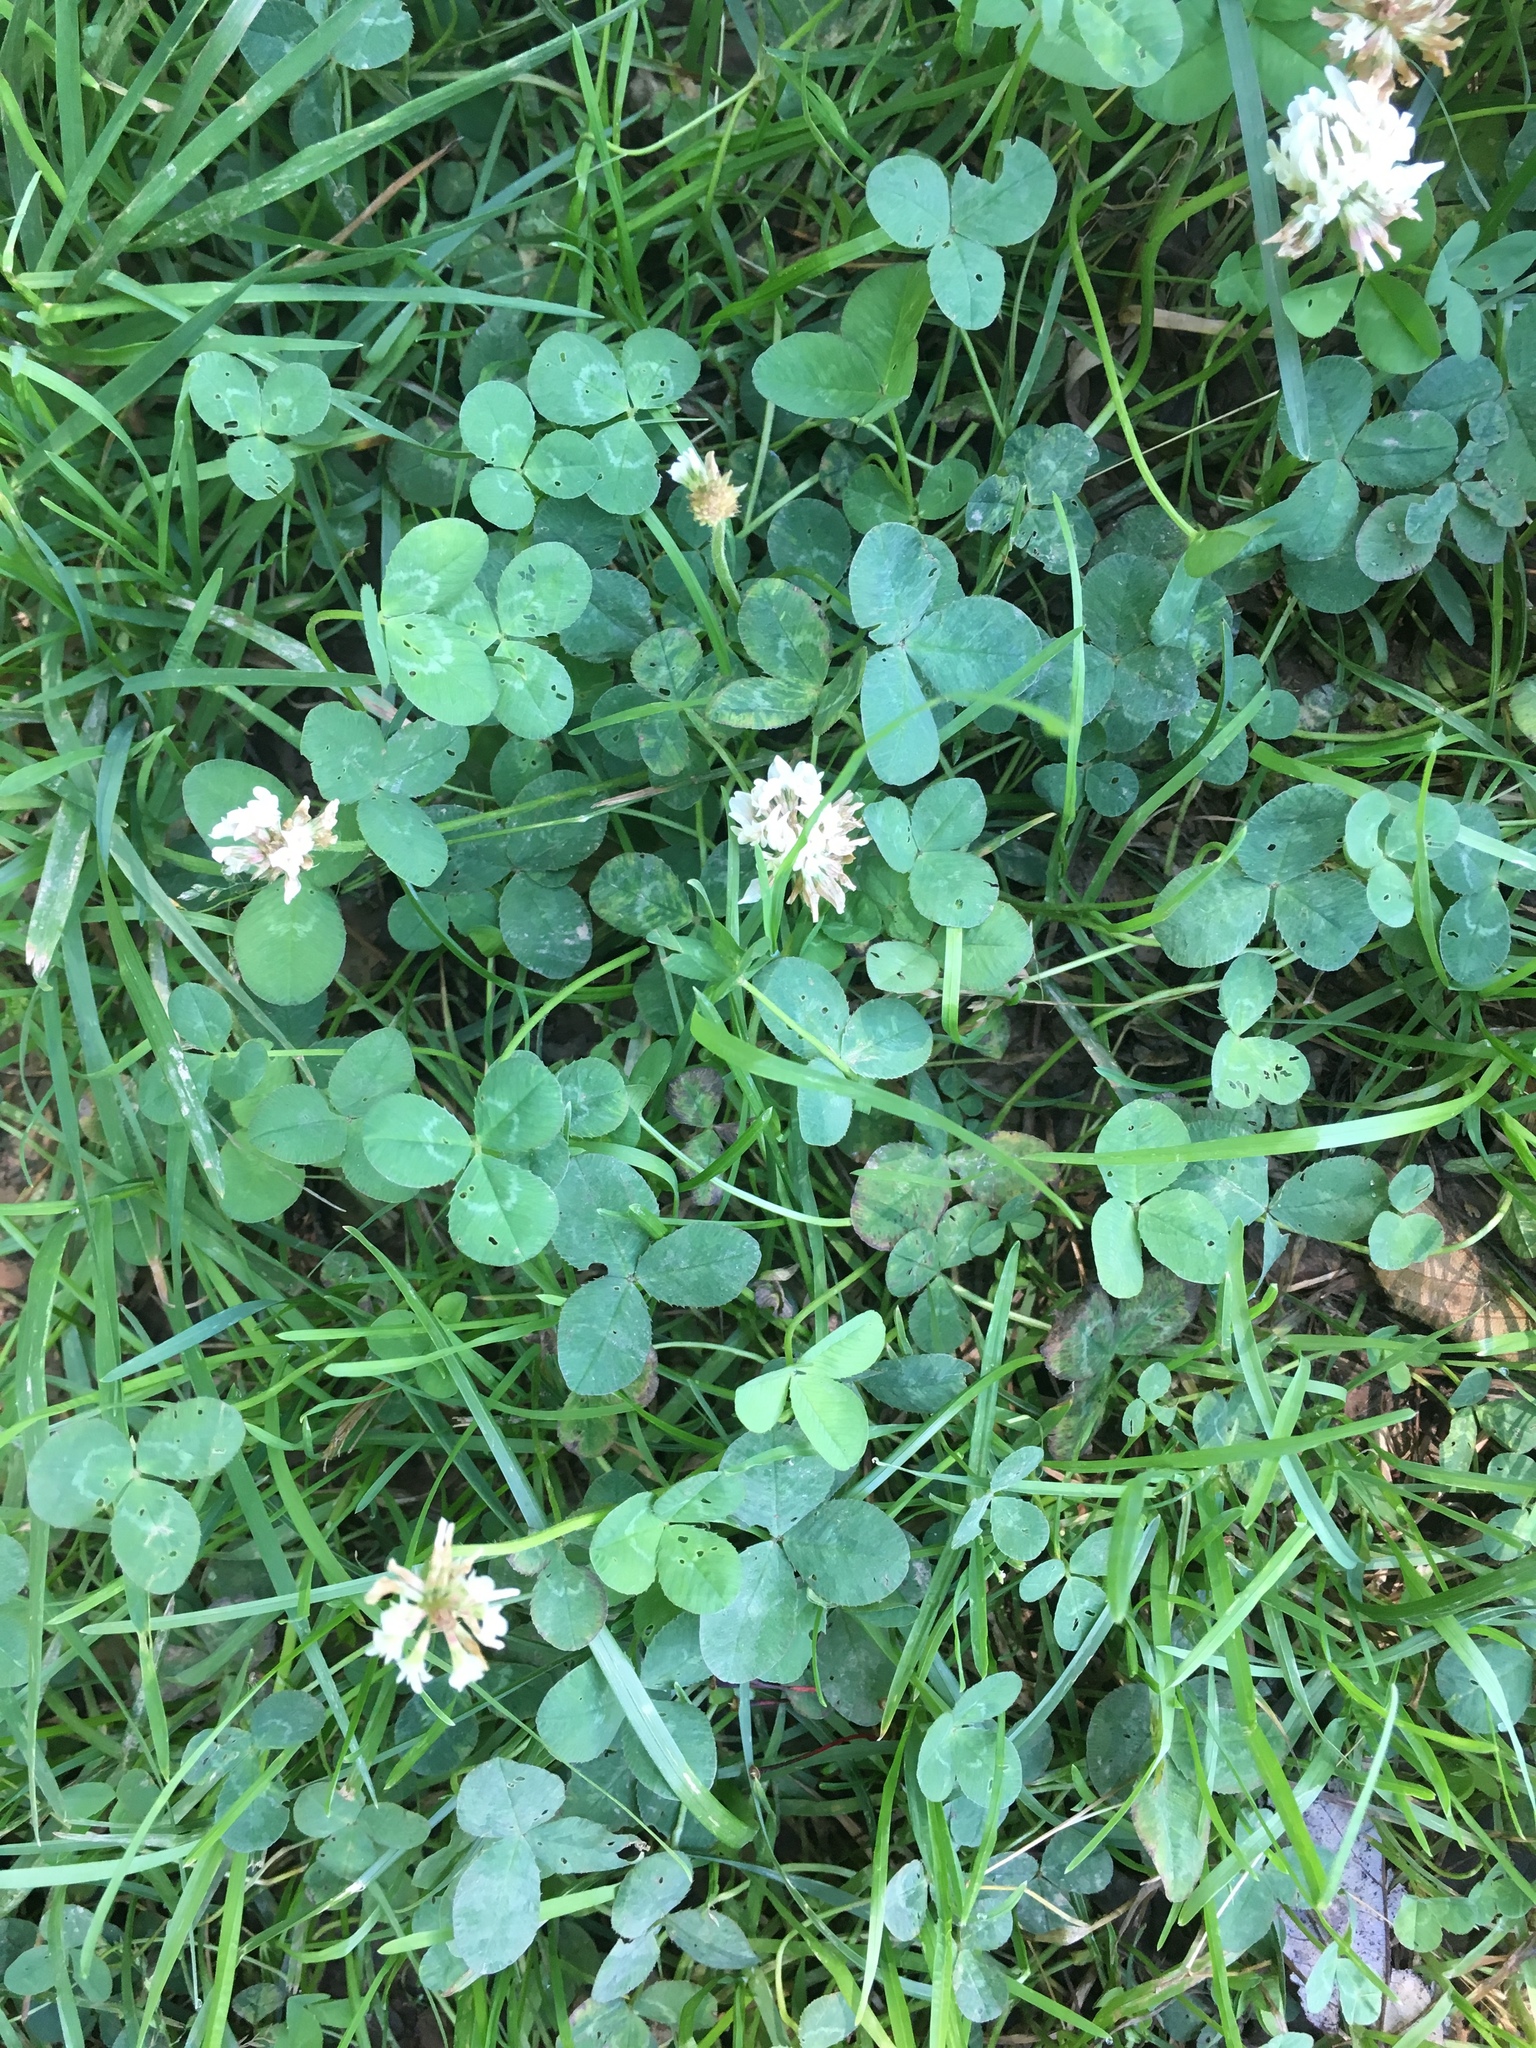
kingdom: Plantae
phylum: Tracheophyta
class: Magnoliopsida
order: Fabales
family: Fabaceae
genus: Trifolium
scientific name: Trifolium repens
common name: White clover
